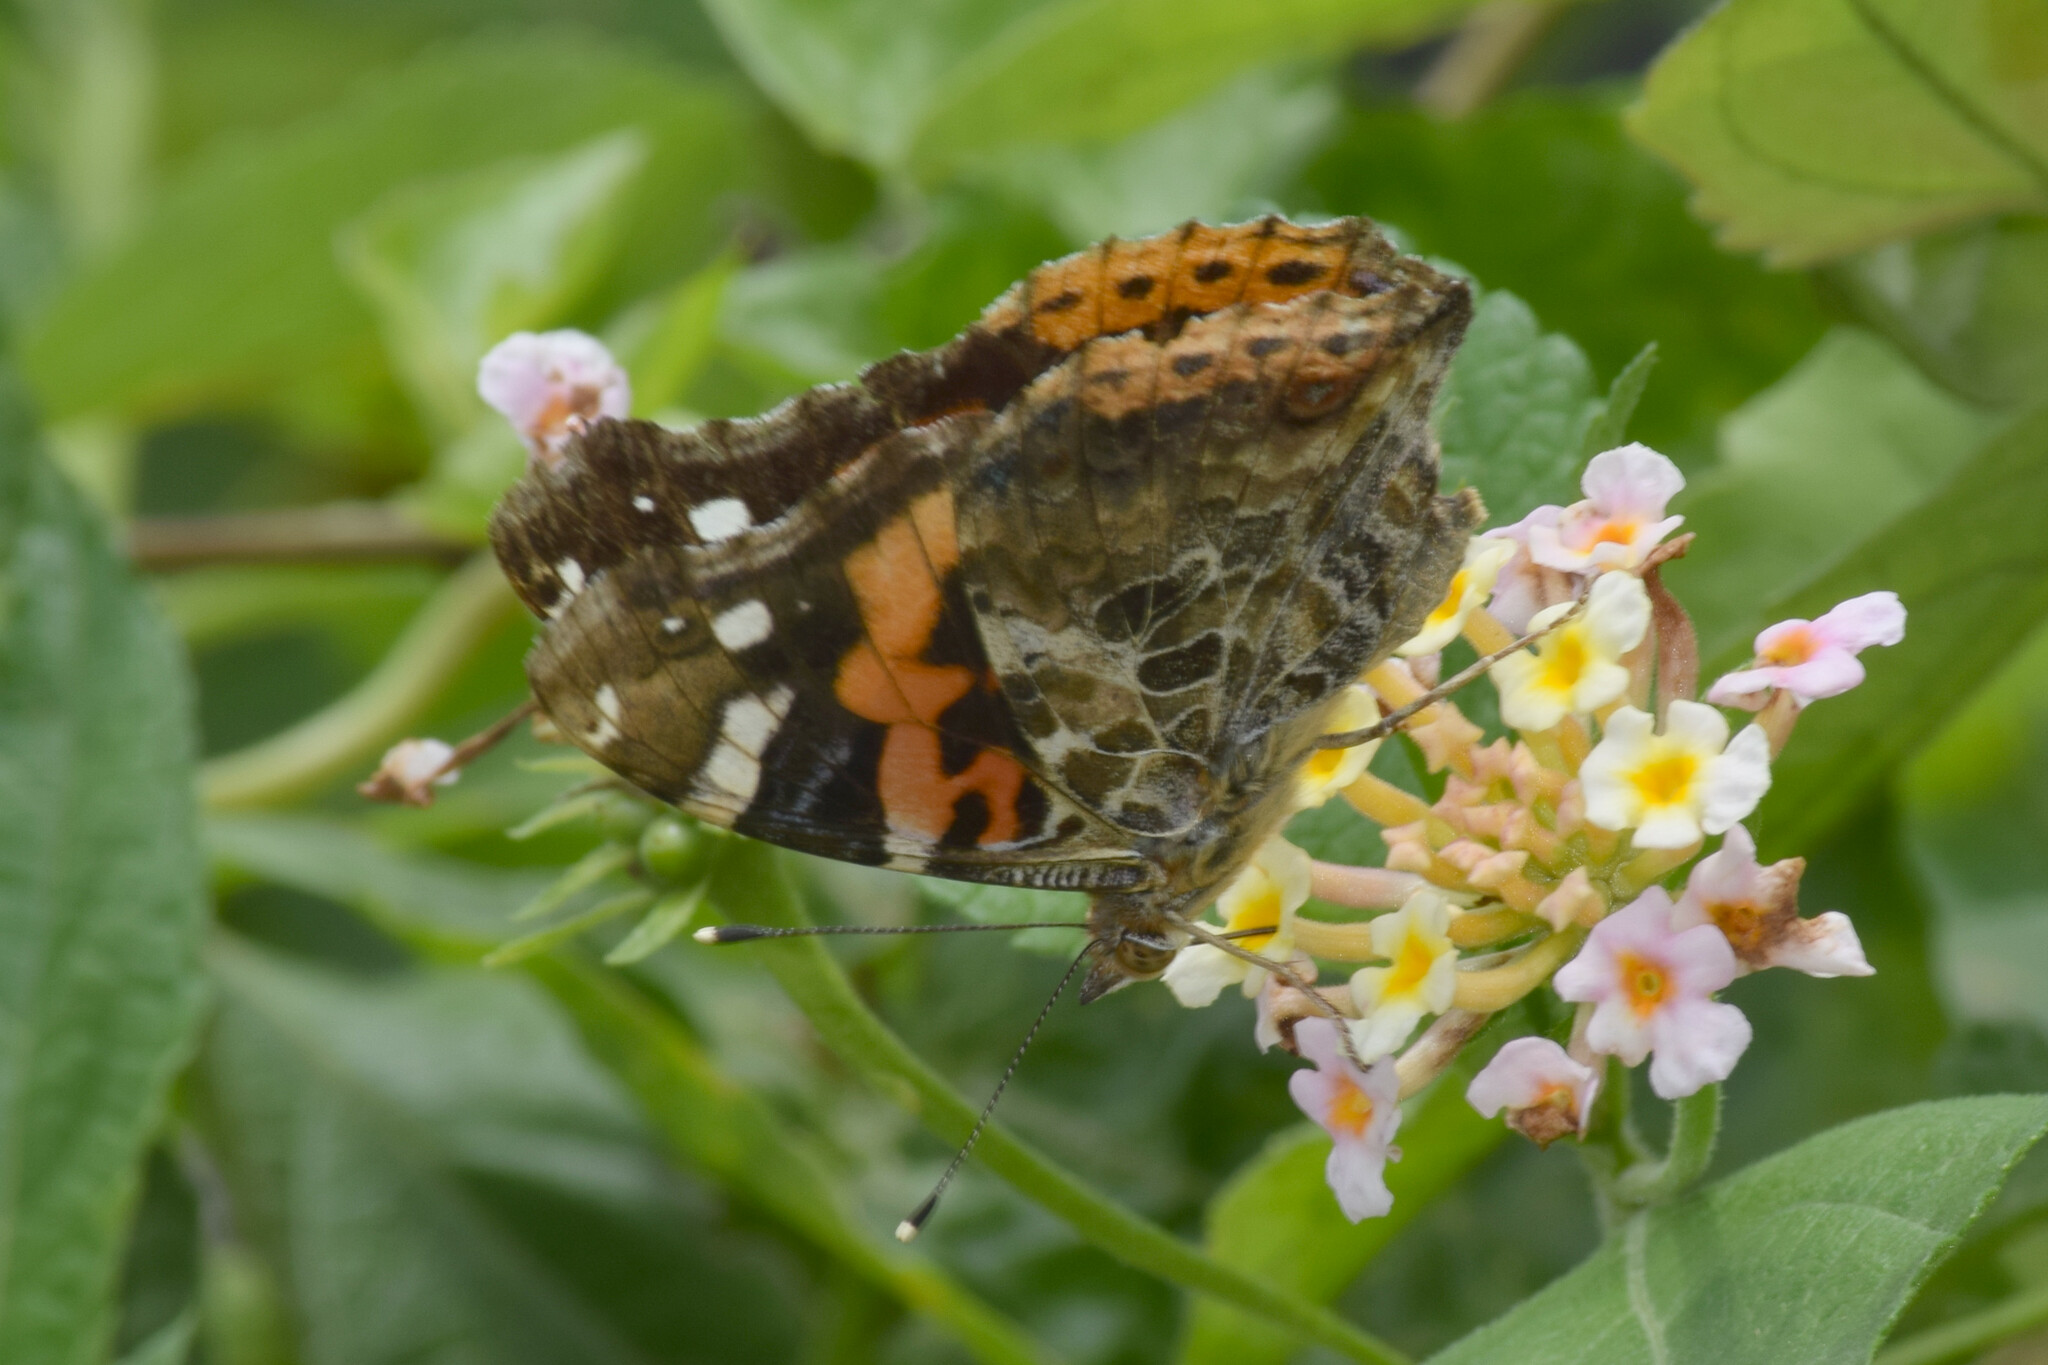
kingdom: Animalia
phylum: Arthropoda
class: Insecta
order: Lepidoptera
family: Nymphalidae
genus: Vanessa
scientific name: Vanessa indica
